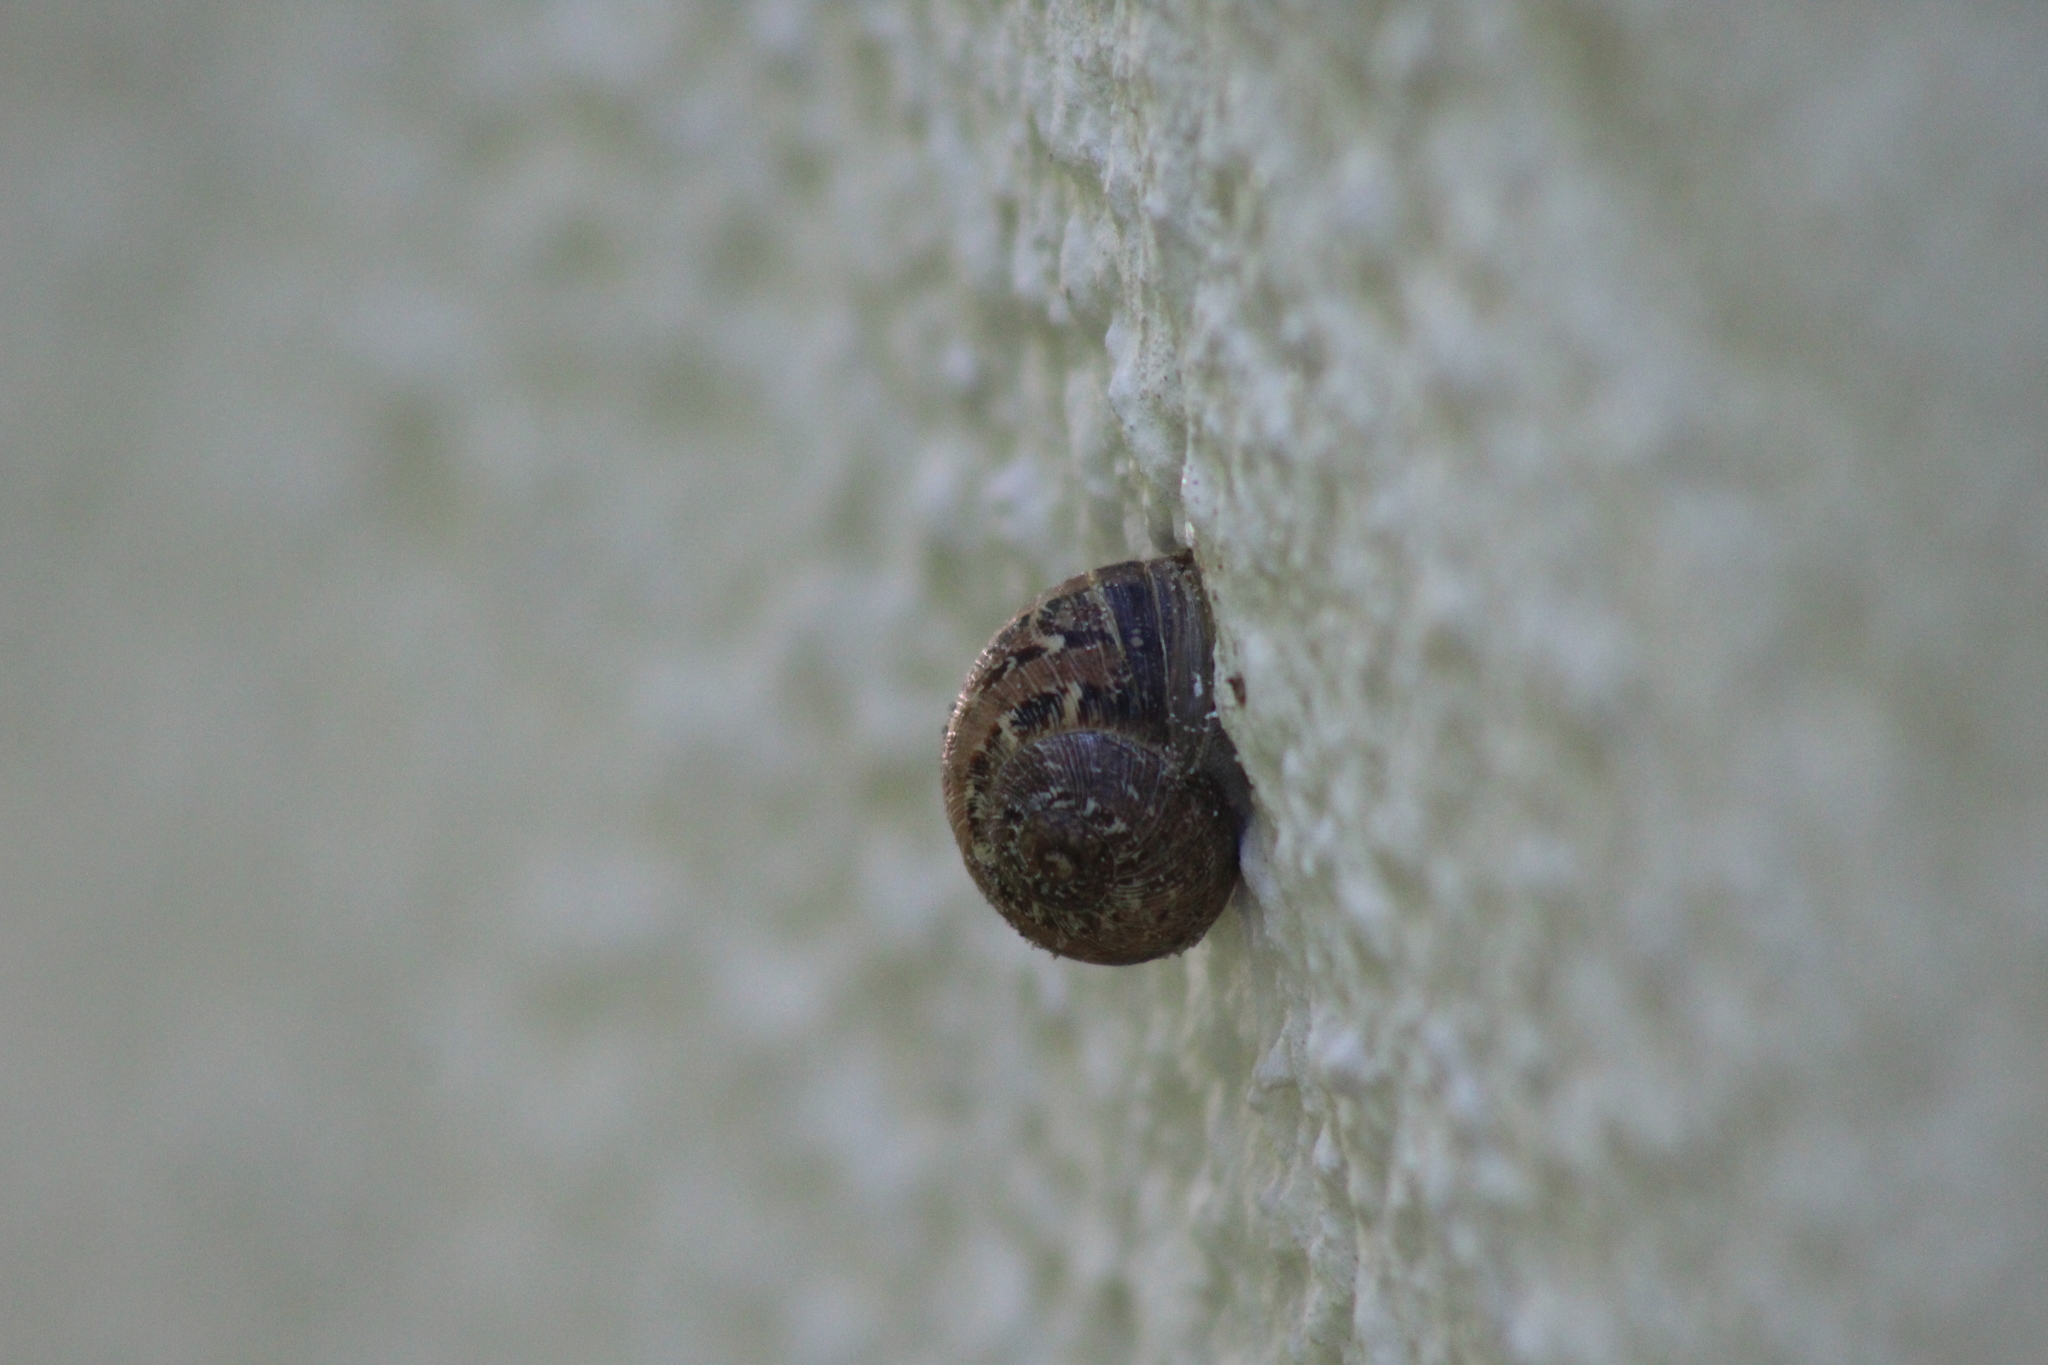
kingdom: Animalia
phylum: Mollusca
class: Gastropoda
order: Stylommatophora
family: Helicidae
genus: Cornu
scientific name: Cornu aspersum
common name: Brown garden snail
